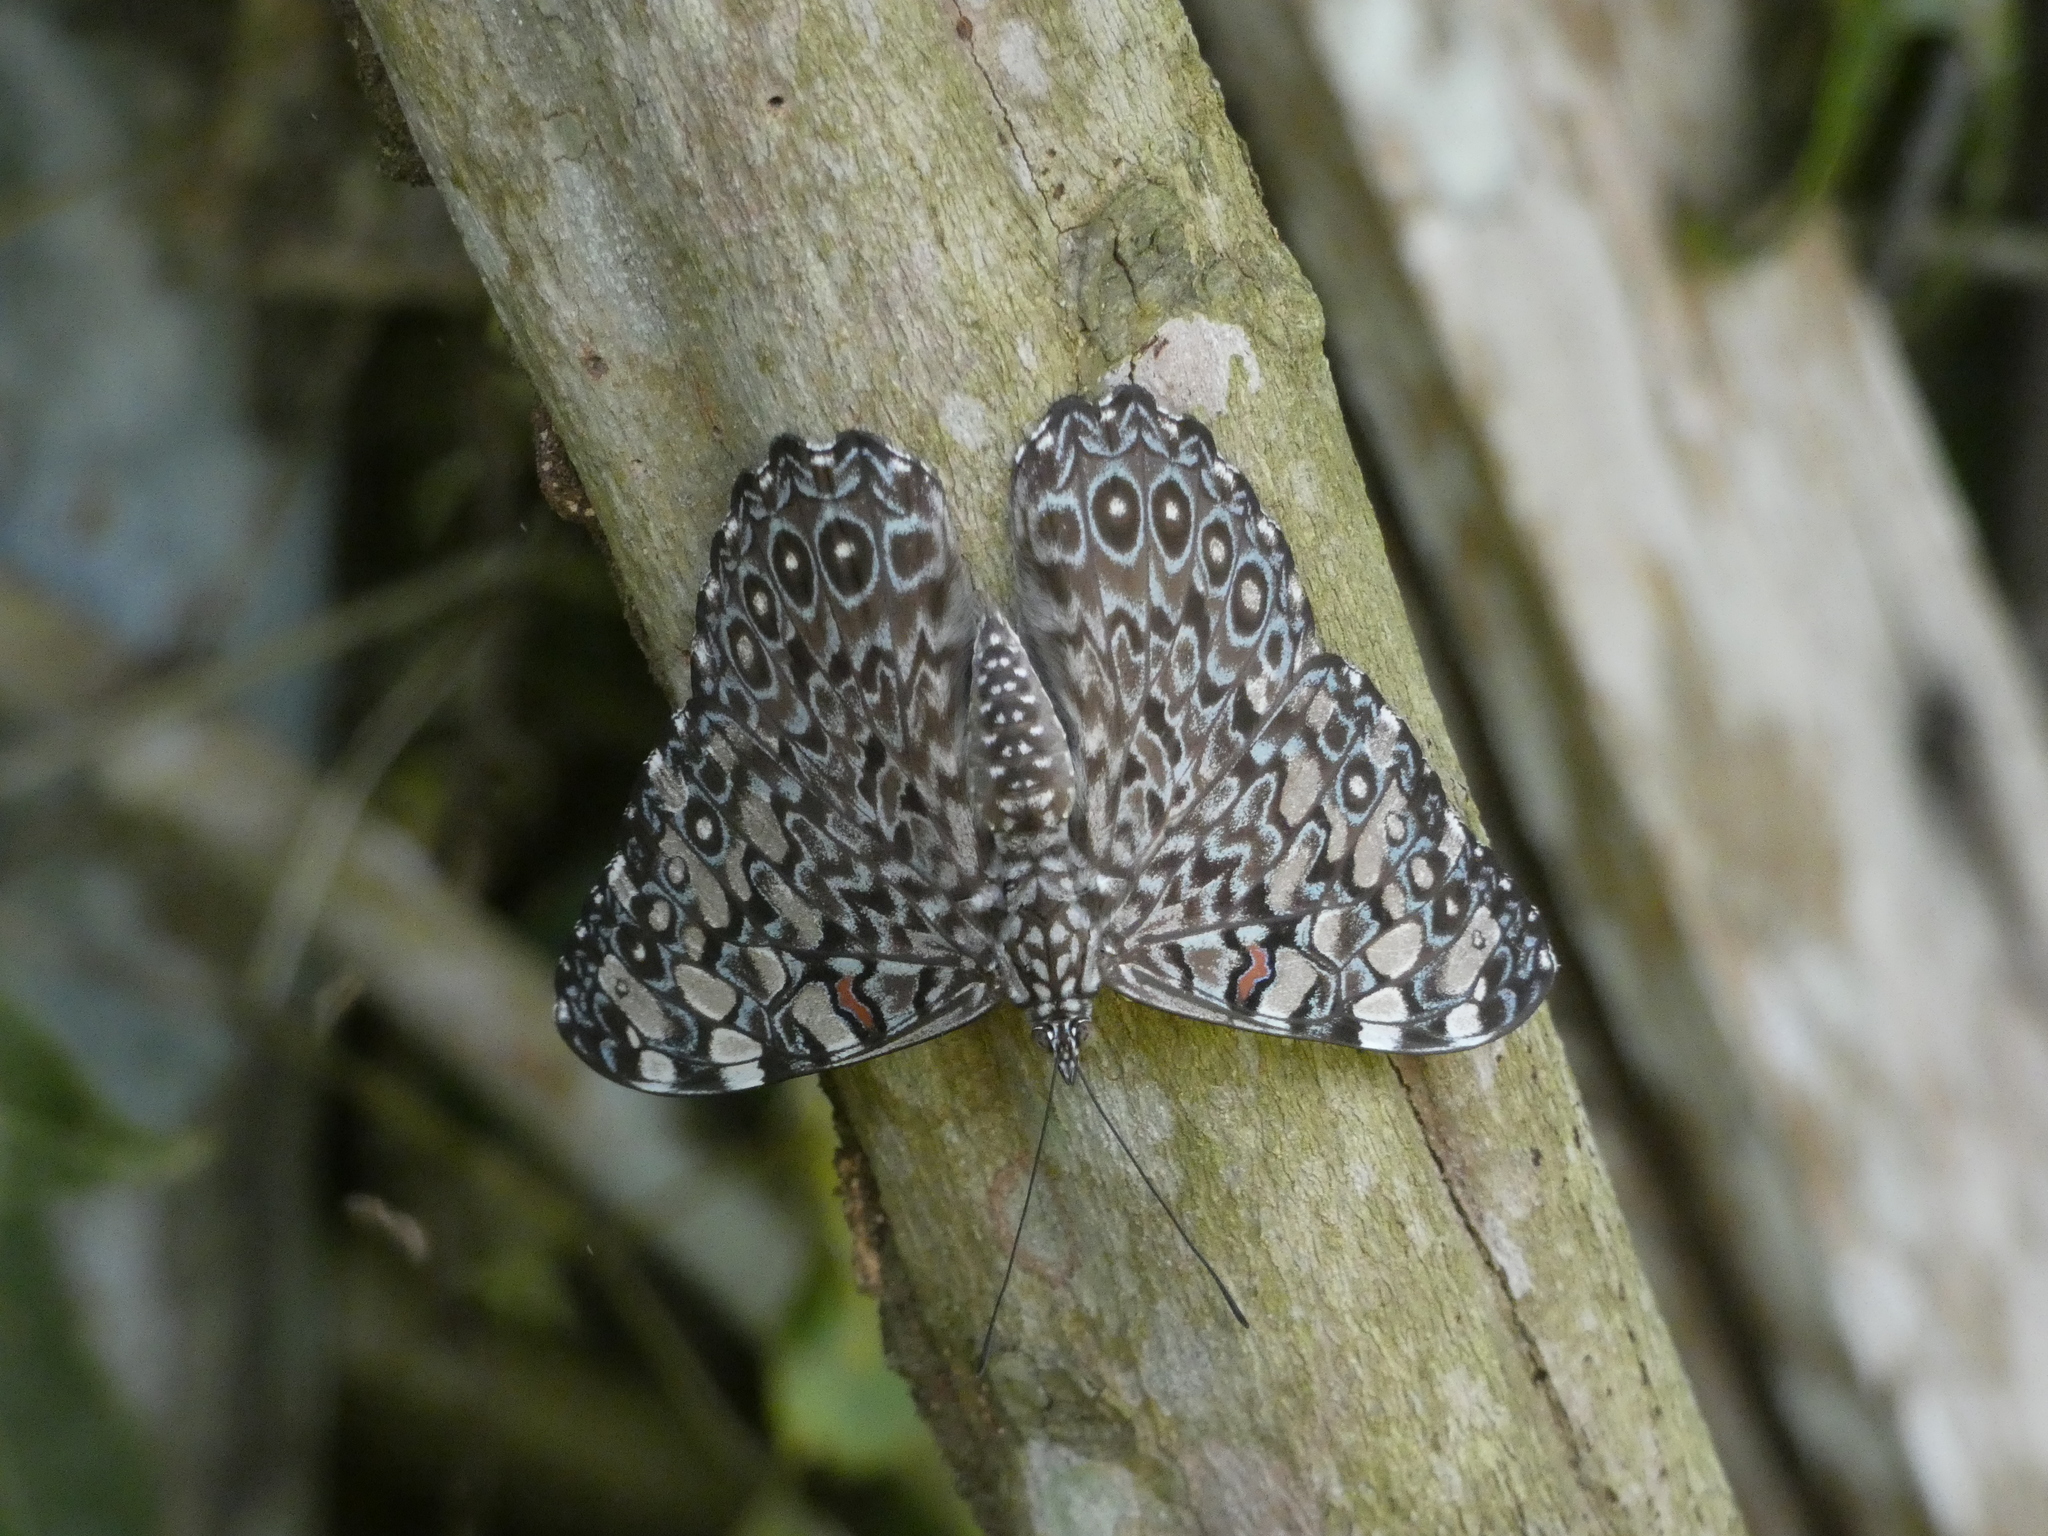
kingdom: Animalia
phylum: Arthropoda
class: Insecta
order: Lepidoptera
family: Nymphalidae
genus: Hamadryas
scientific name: Hamadryas feronia
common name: Variable cracker
